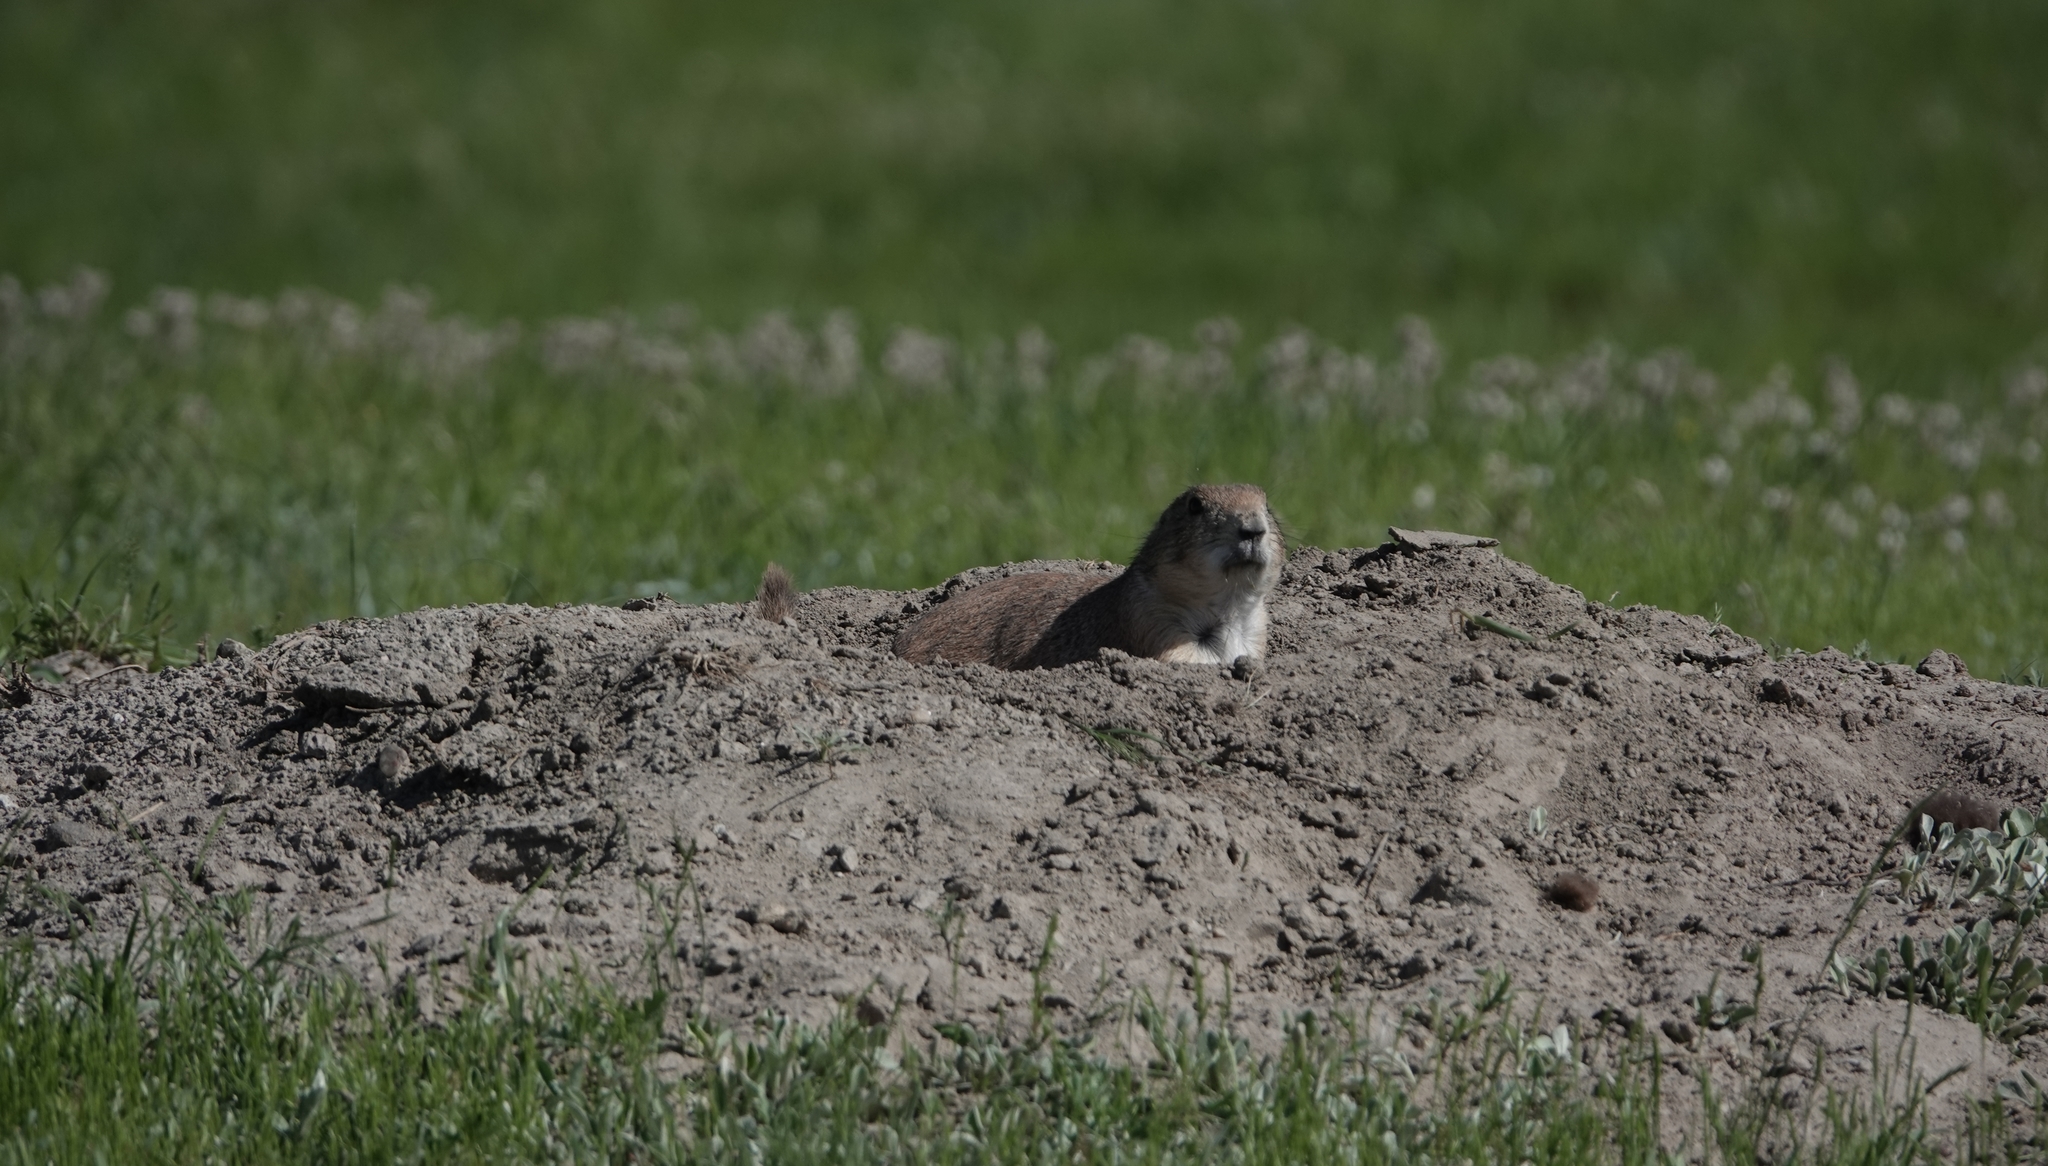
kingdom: Animalia
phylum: Chordata
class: Mammalia
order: Rodentia
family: Sciuridae
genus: Cynomys
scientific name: Cynomys ludovicianus
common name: Black-tailed prairie dog
